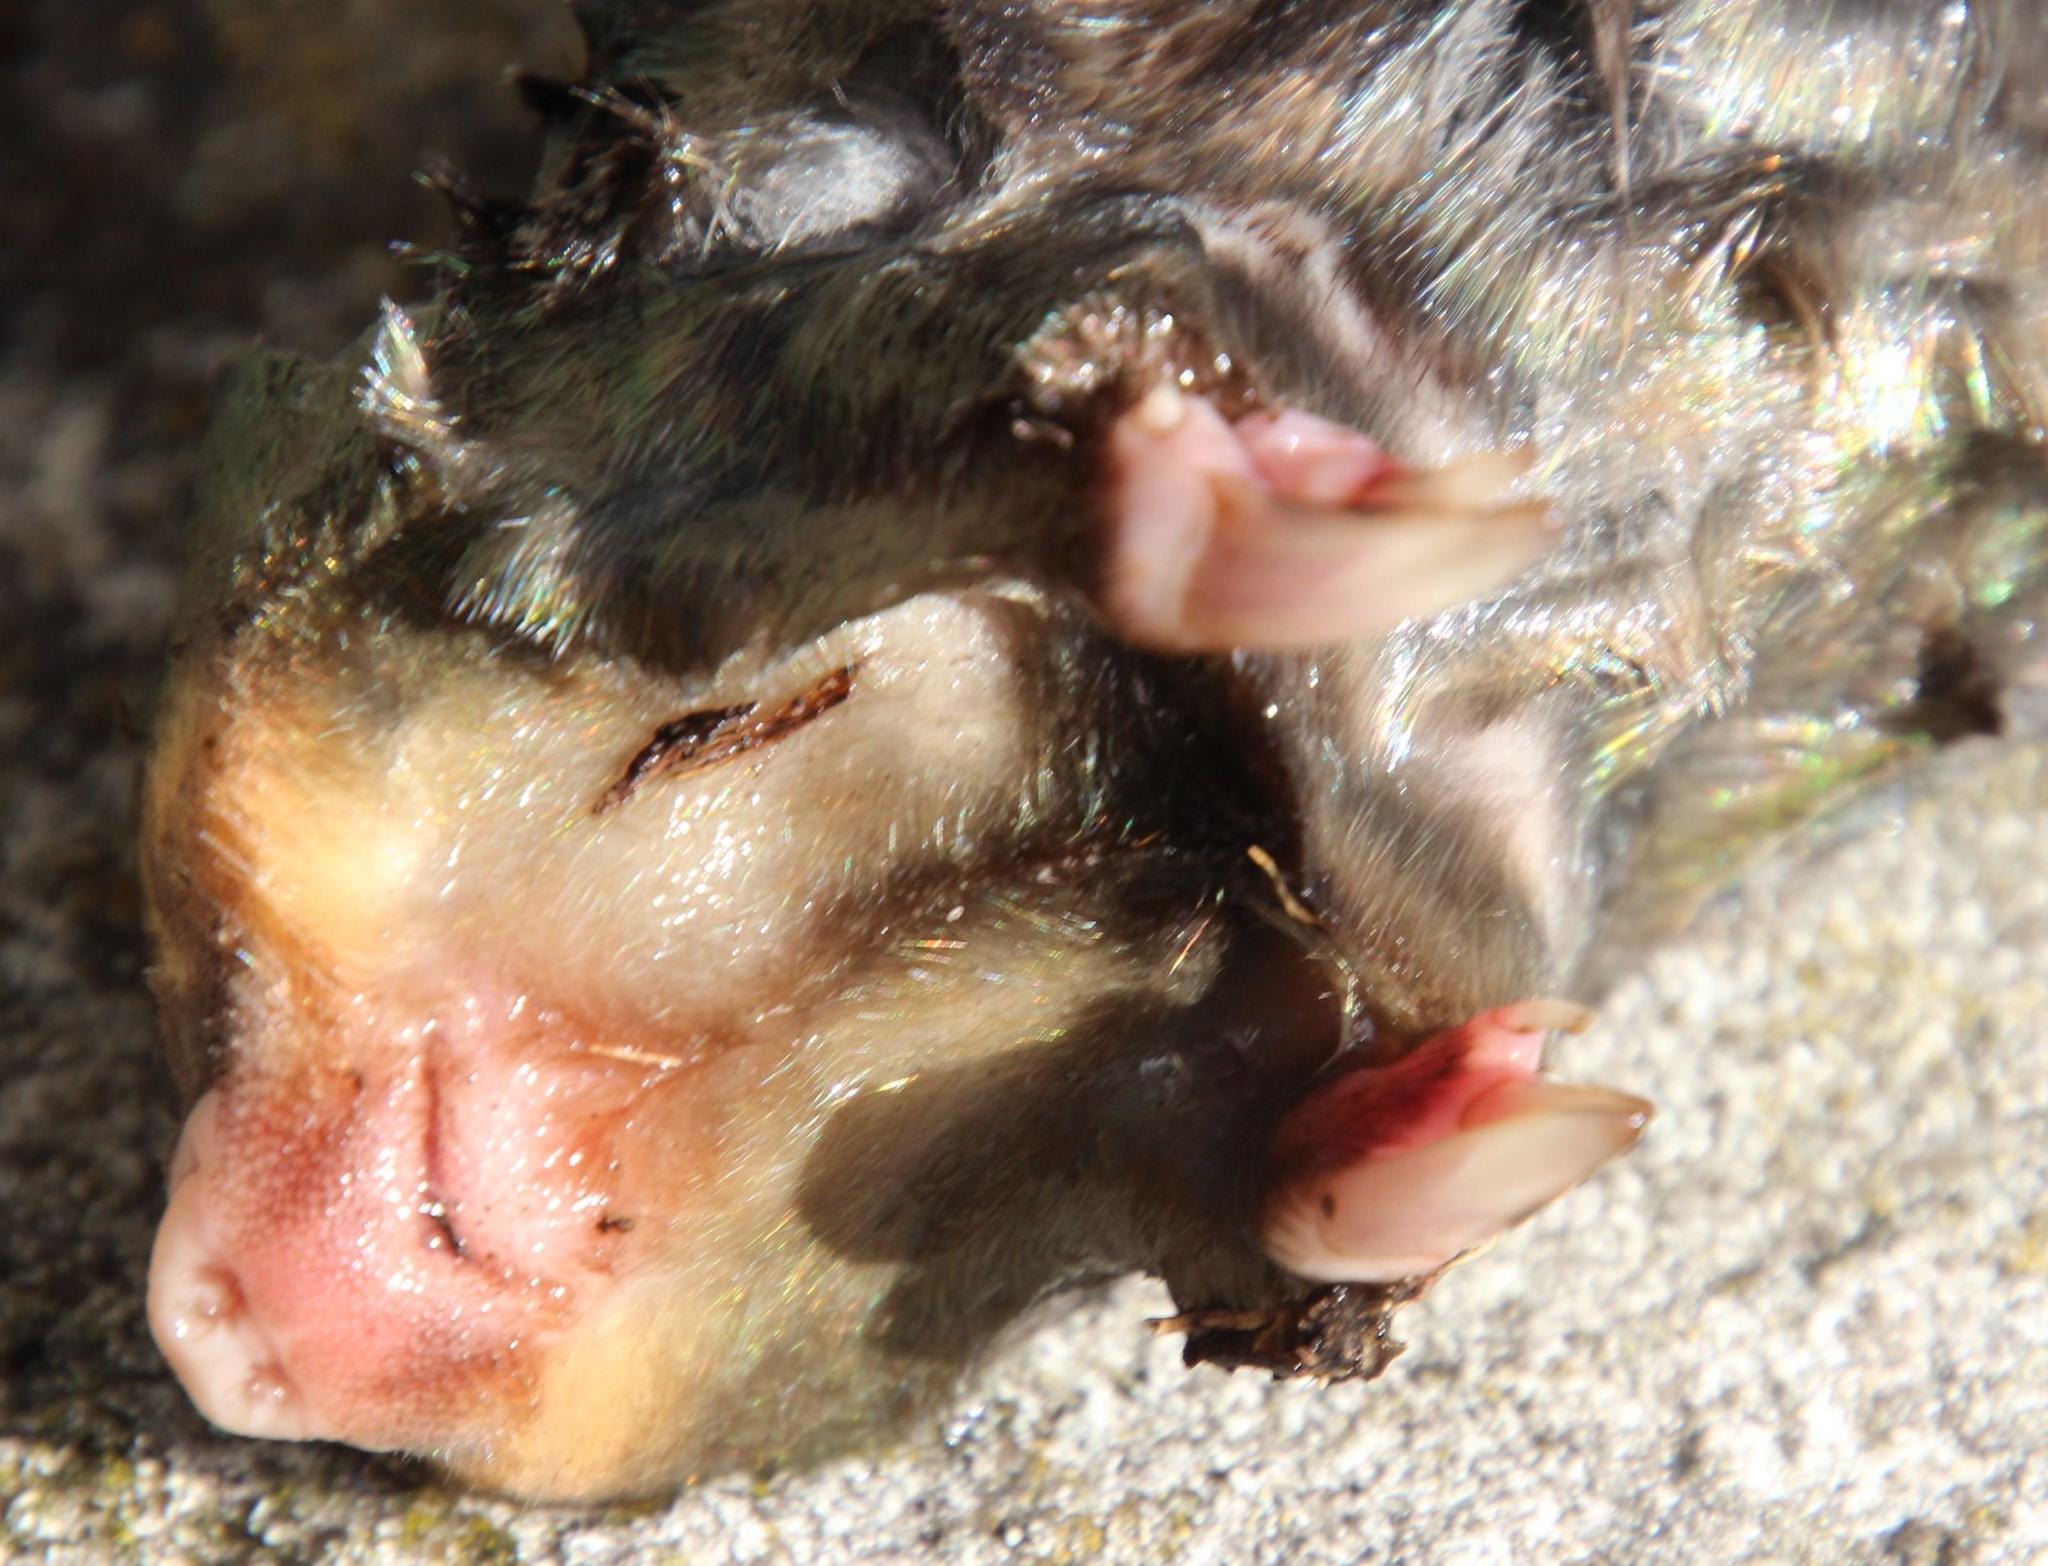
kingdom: Animalia
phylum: Chordata
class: Mammalia
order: Afrosoricida
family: Chrysochloridae
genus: Chrysochloris
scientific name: Chrysochloris asiatica
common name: Cape golden mole
